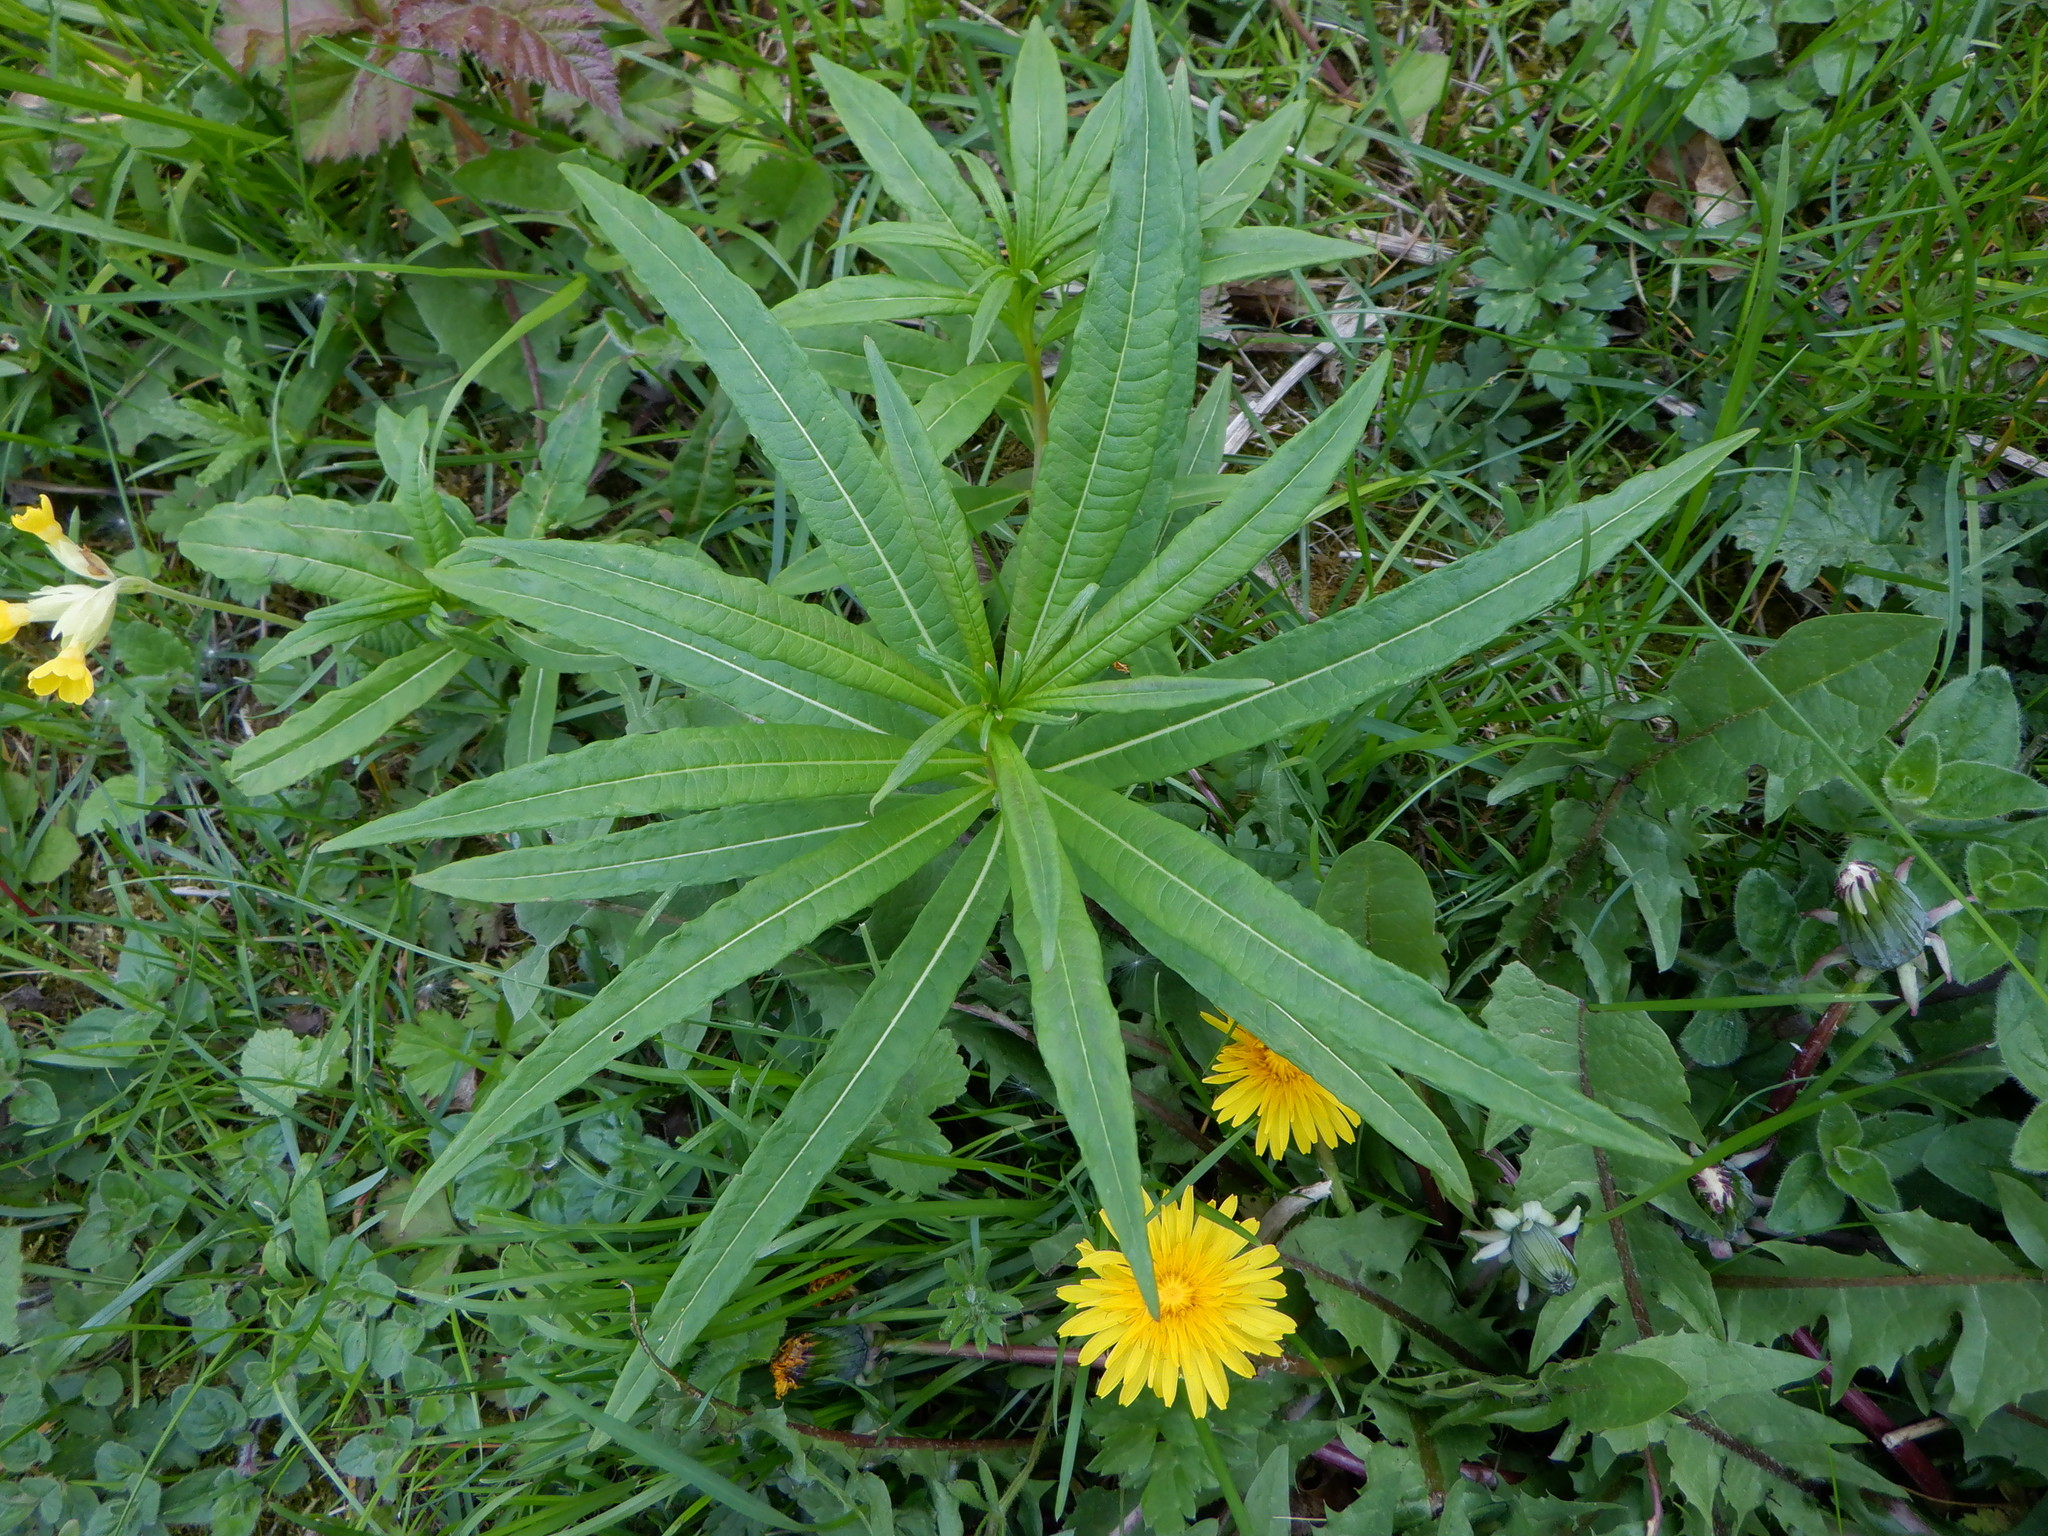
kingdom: Plantae
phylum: Tracheophyta
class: Magnoliopsida
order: Myrtales
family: Onagraceae
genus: Chamaenerion
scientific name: Chamaenerion angustifolium
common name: Fireweed
